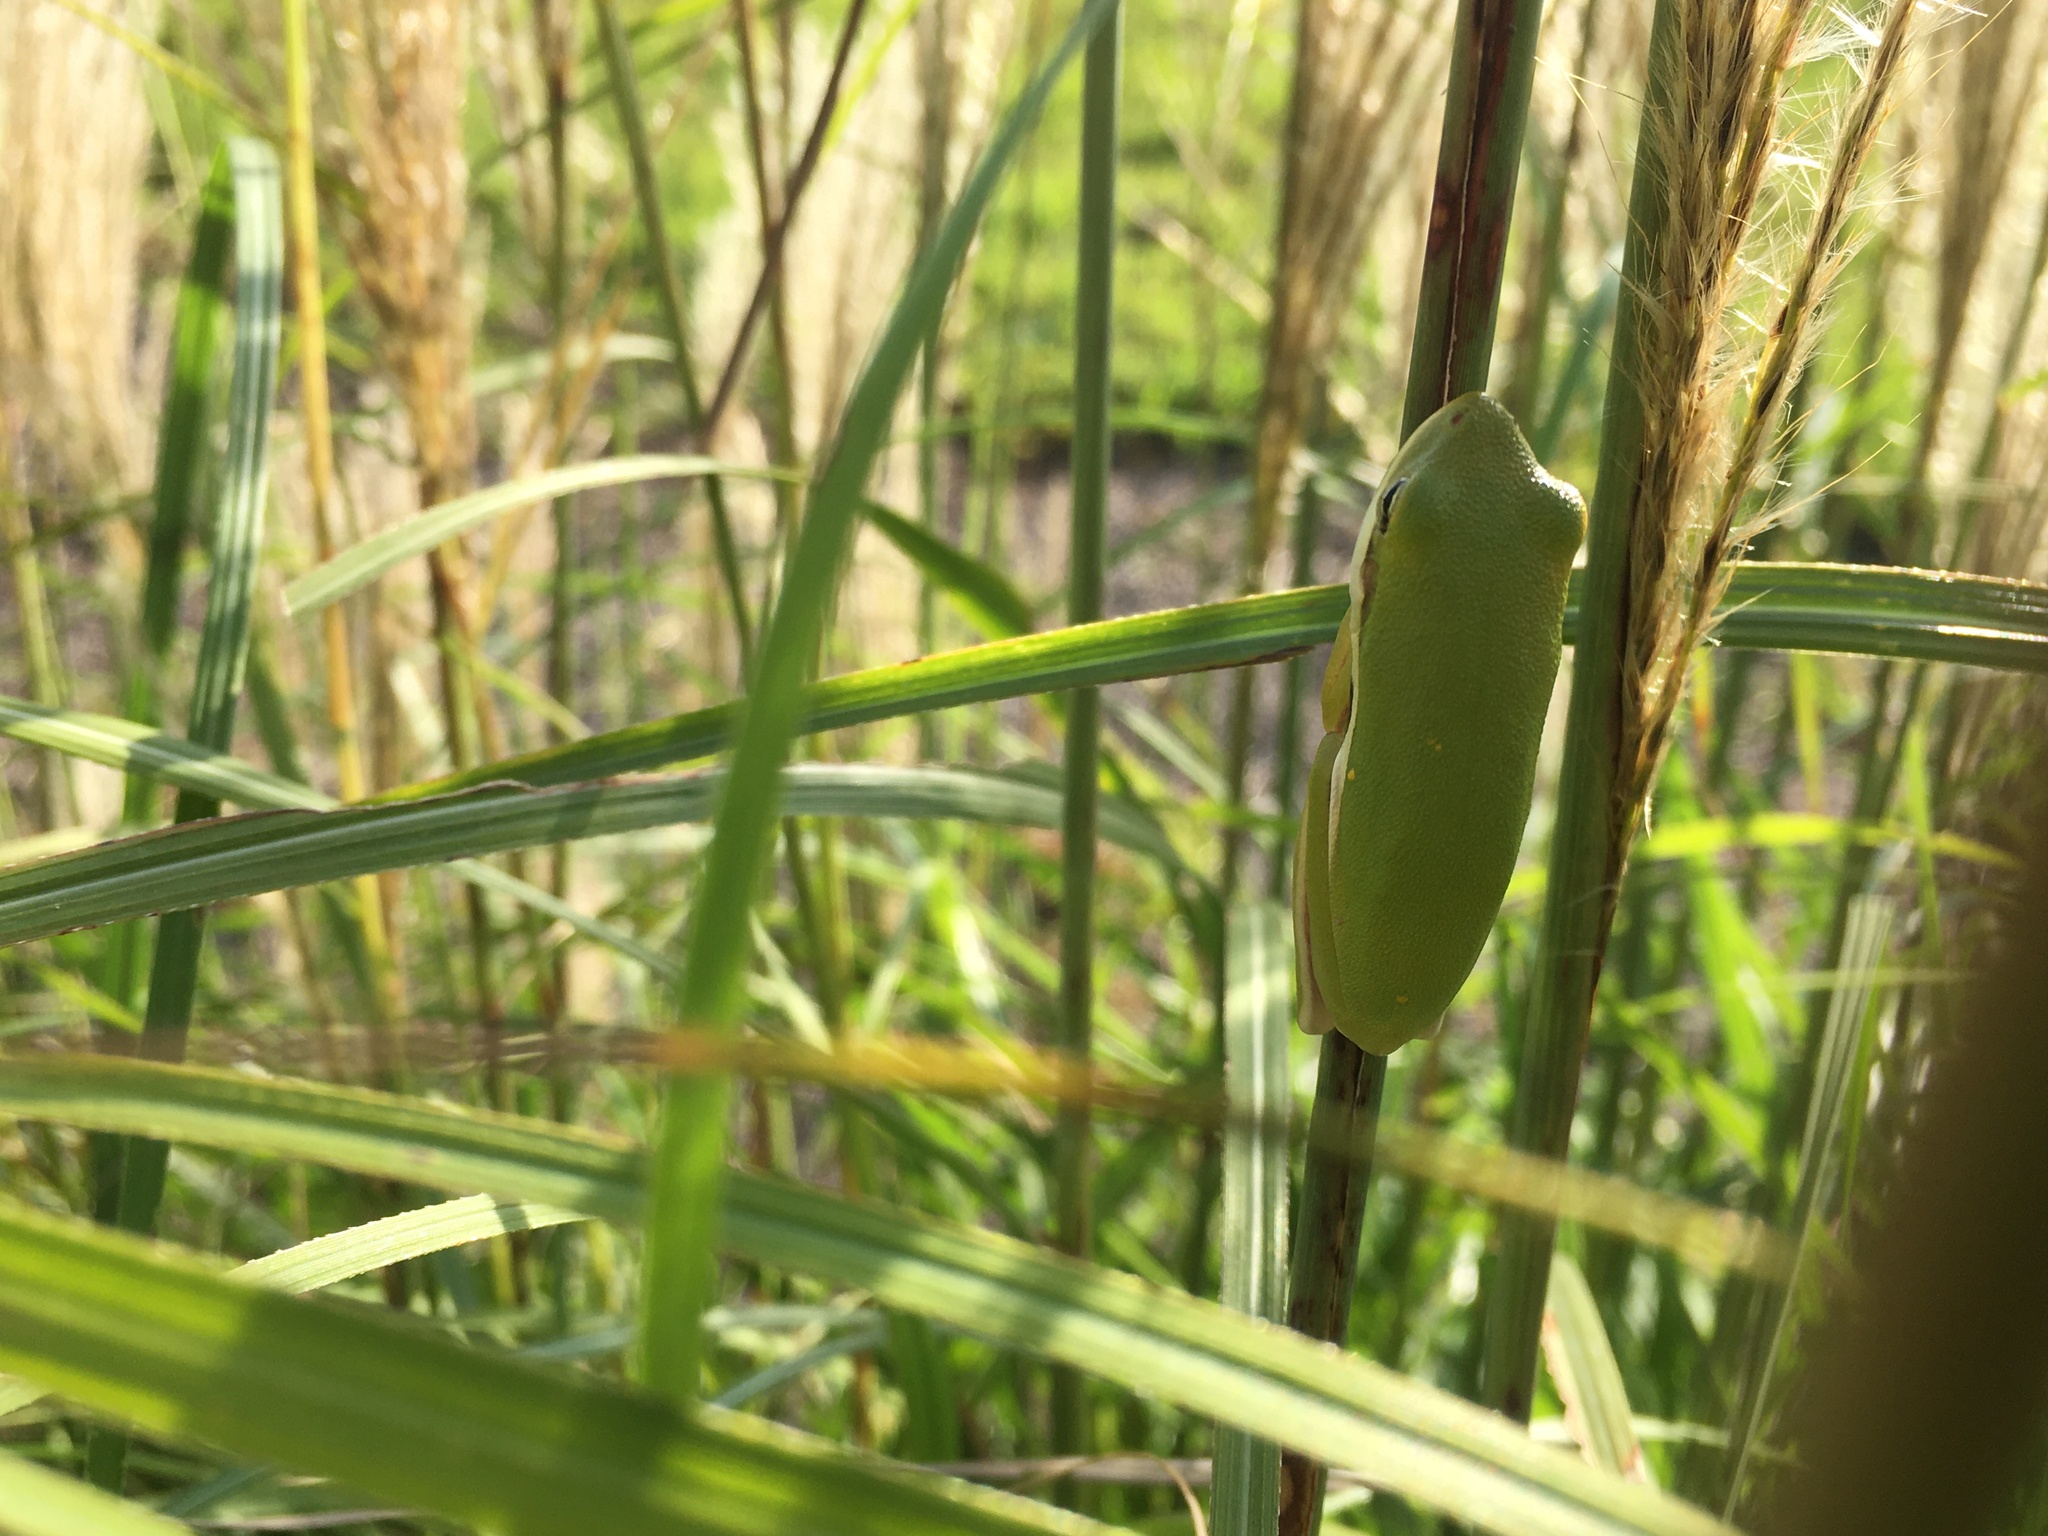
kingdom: Animalia
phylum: Chordata
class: Amphibia
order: Anura
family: Hylidae
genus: Dryophytes
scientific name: Dryophytes cinereus
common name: Green treefrog
